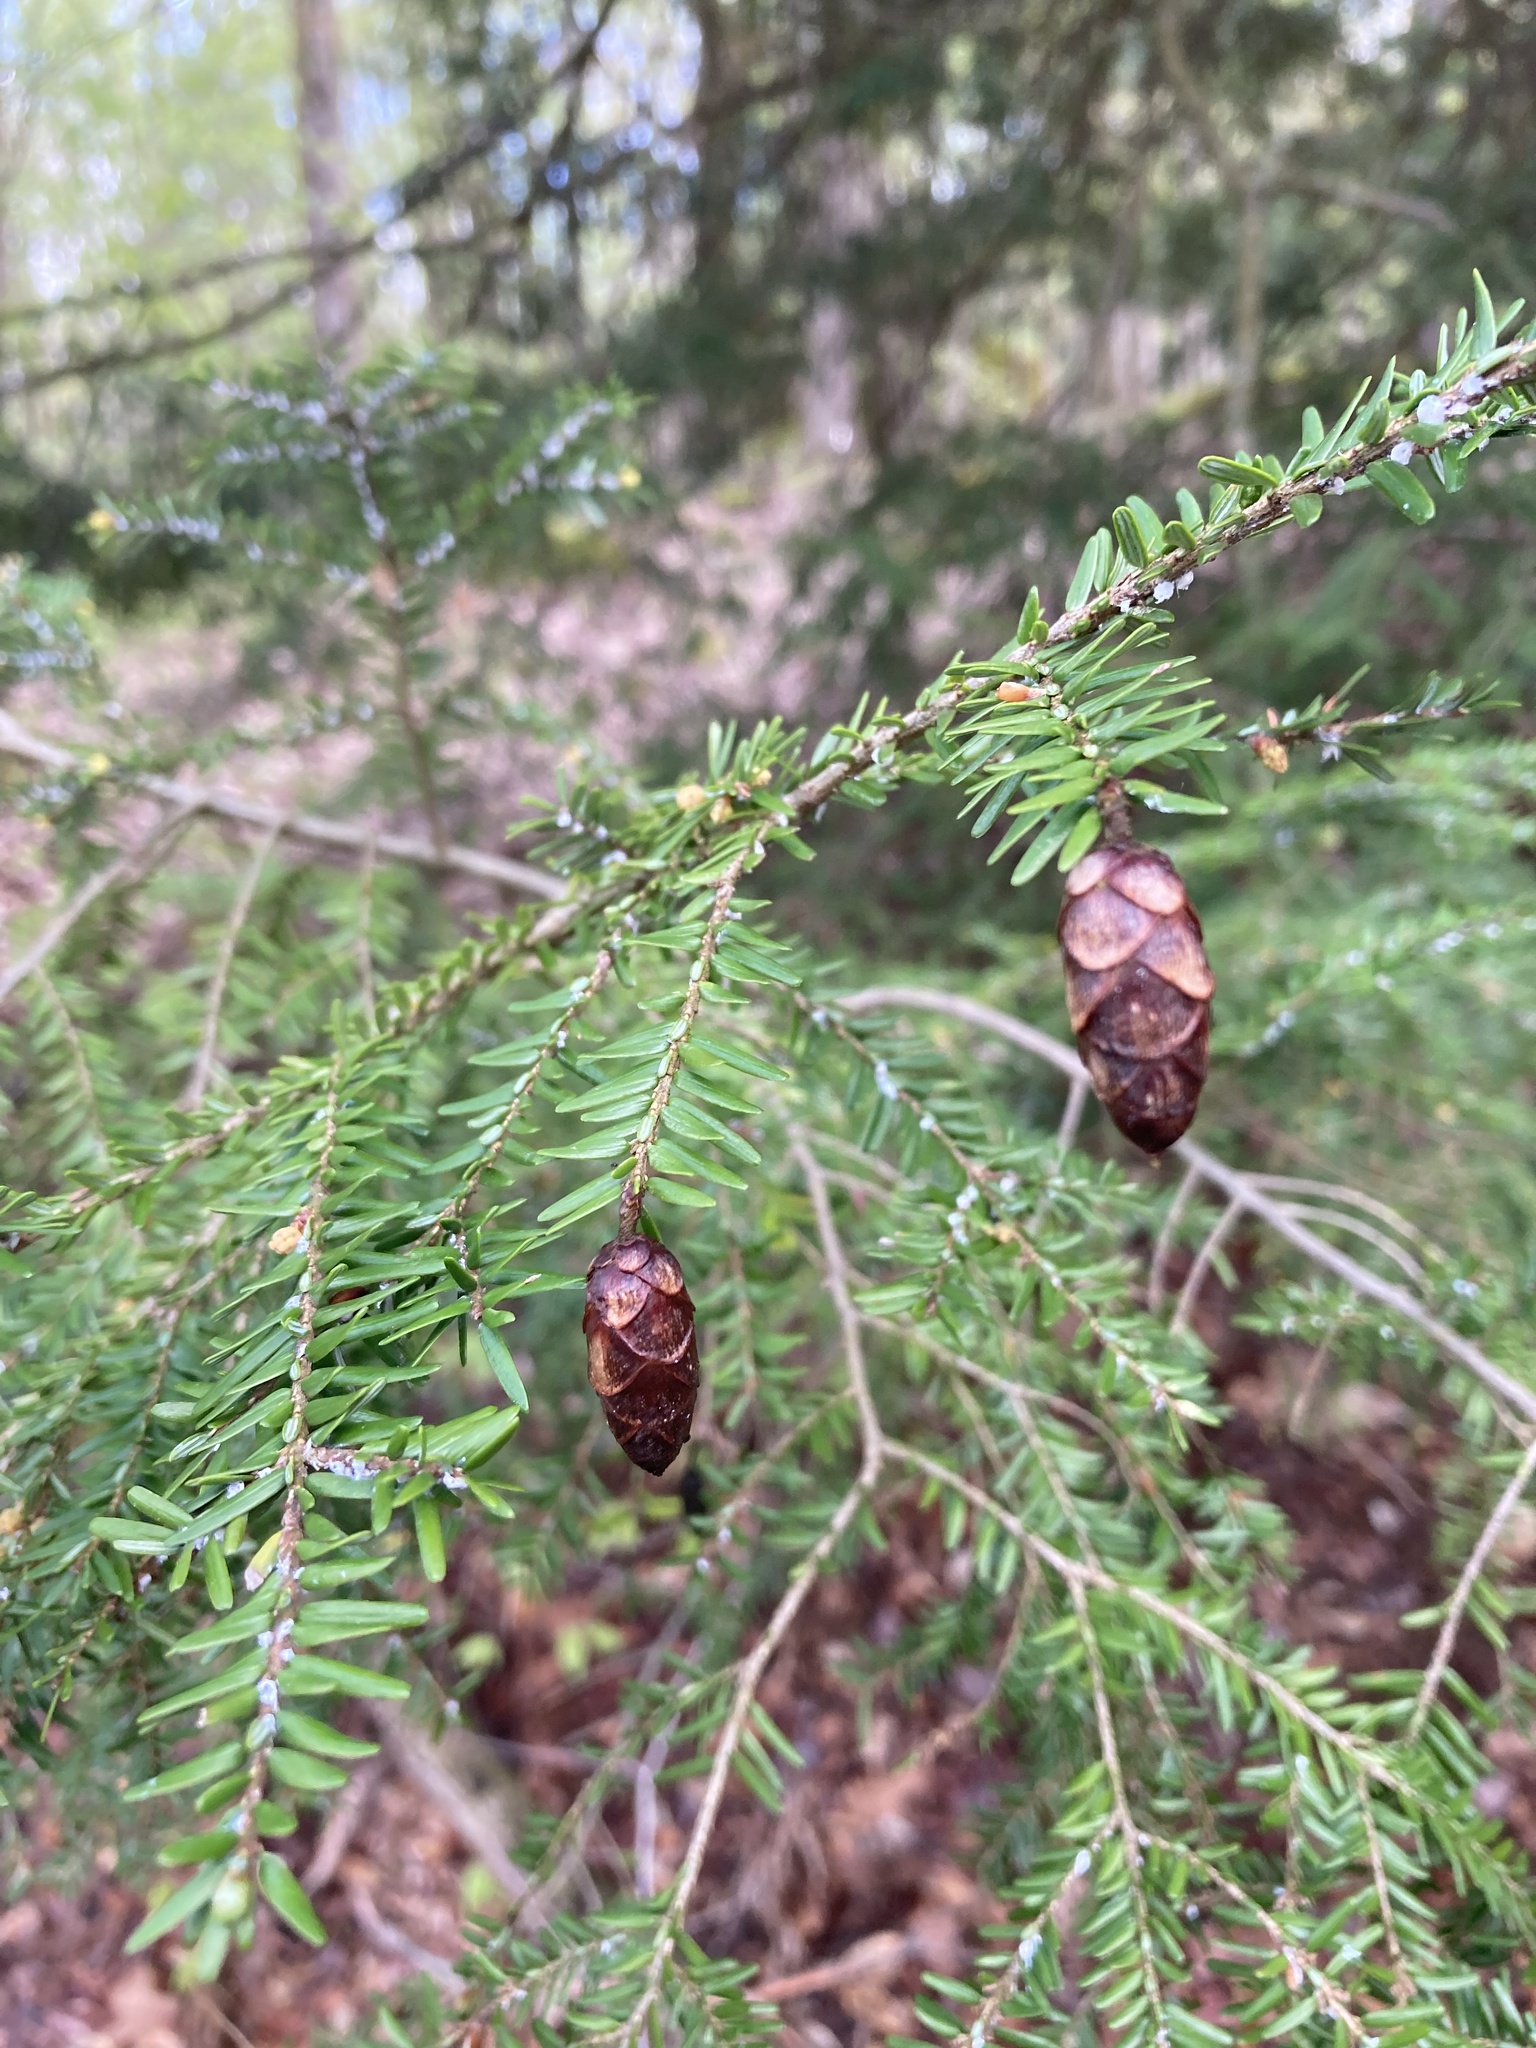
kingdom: Plantae
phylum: Tracheophyta
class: Pinopsida
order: Pinales
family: Pinaceae
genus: Tsuga
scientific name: Tsuga canadensis
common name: Eastern hemlock
